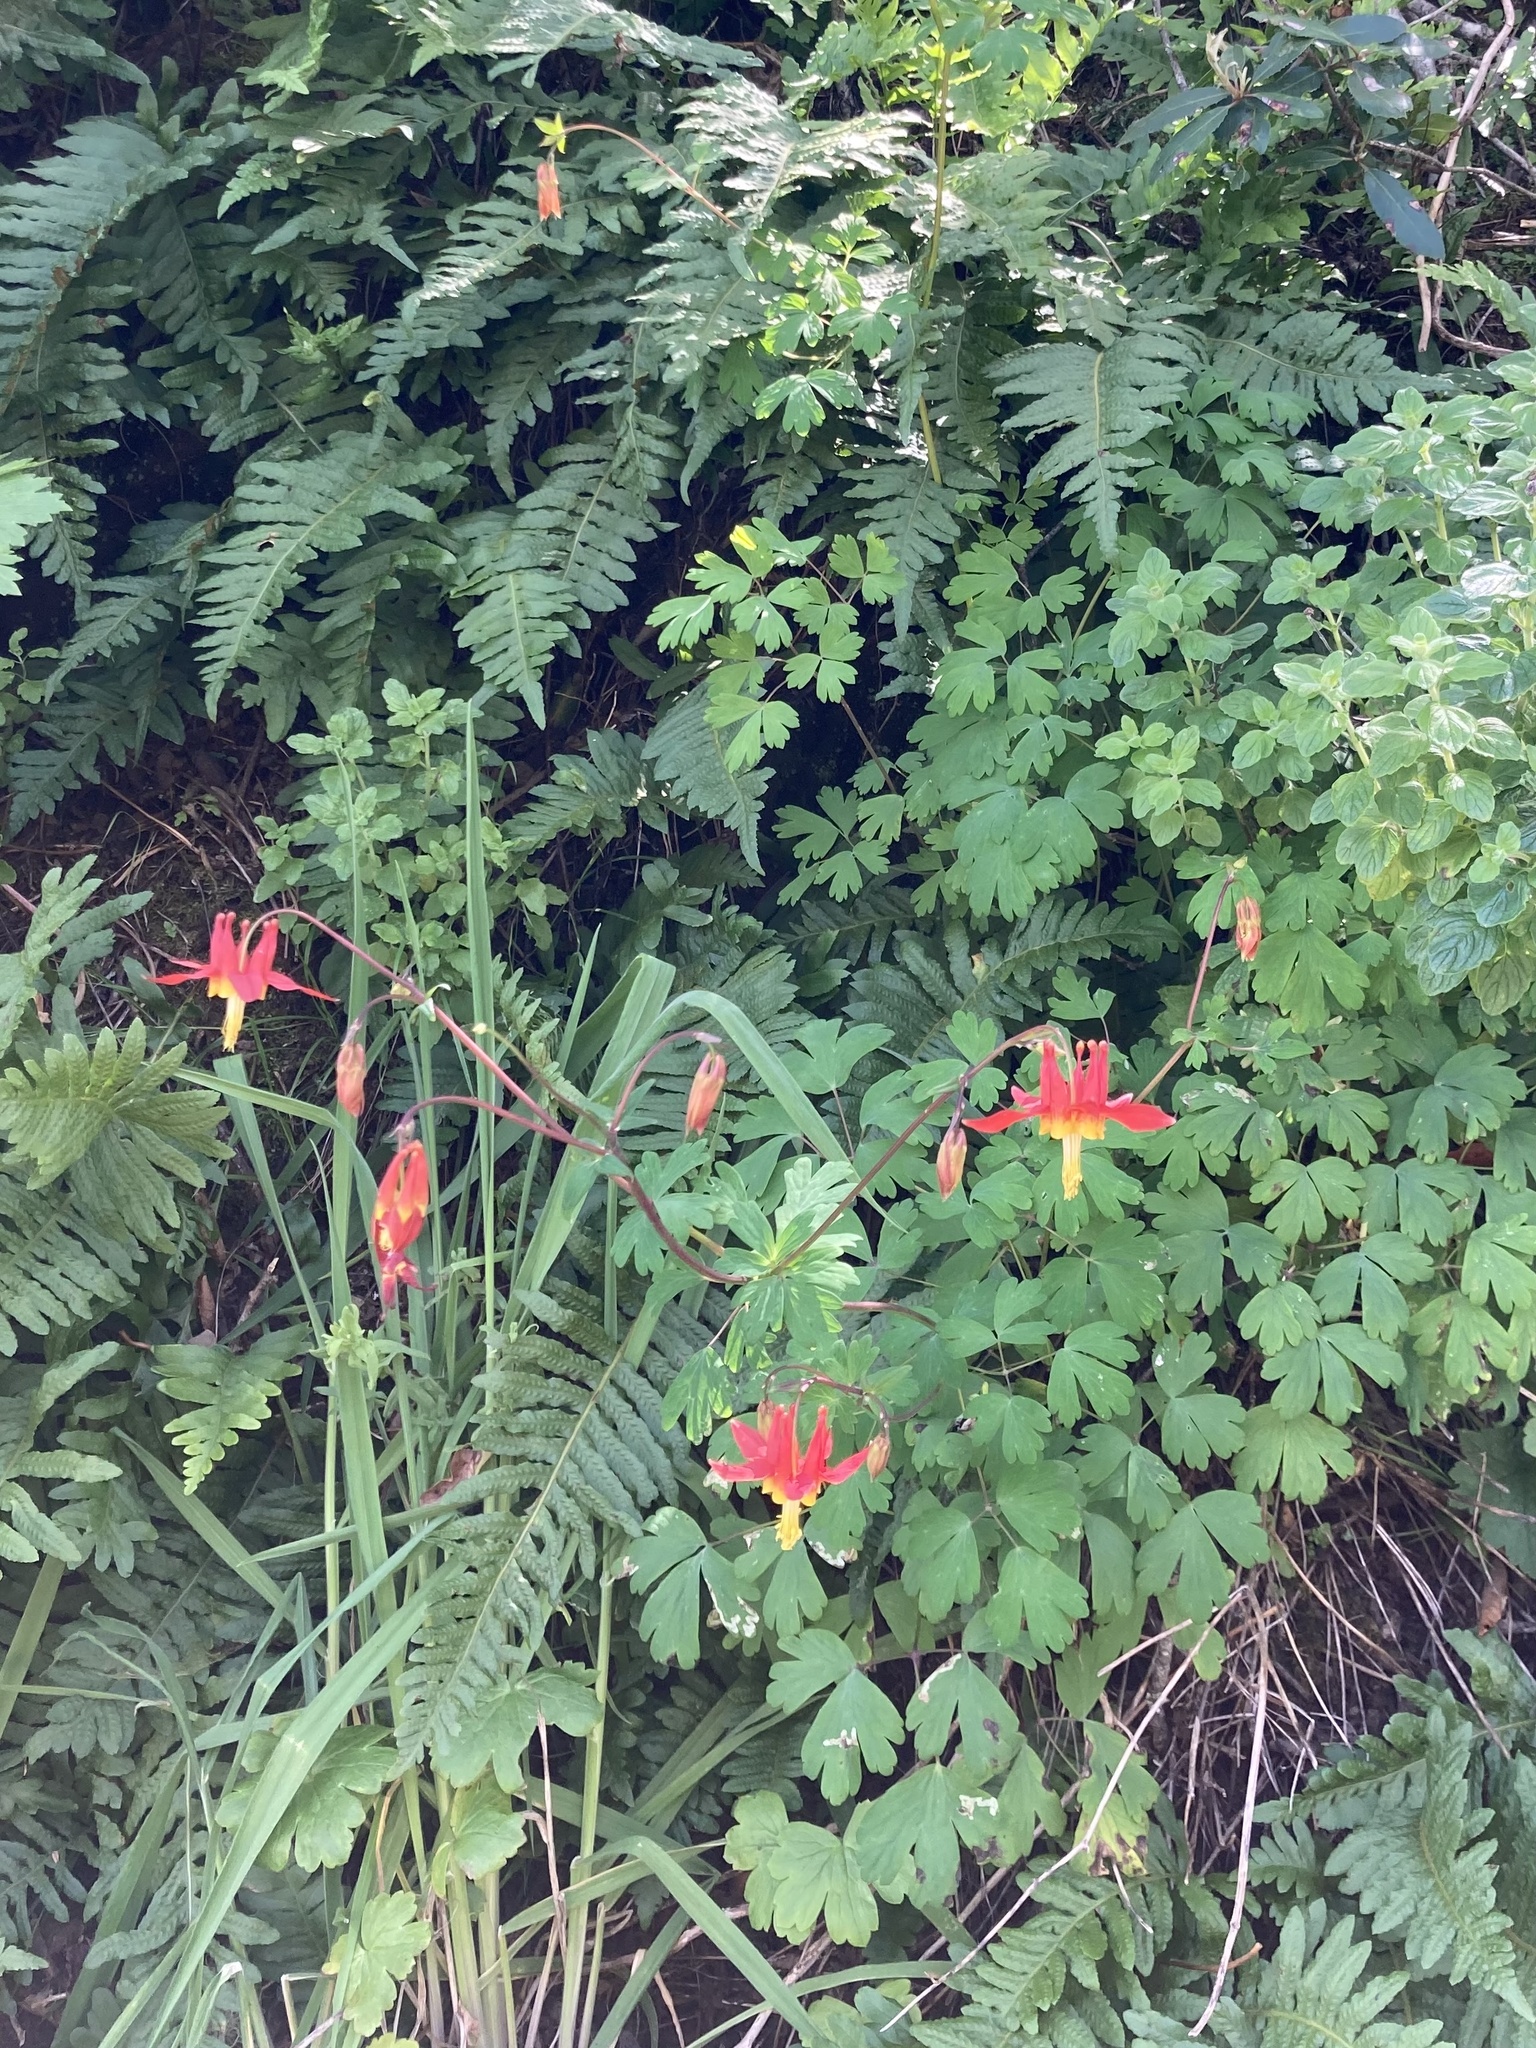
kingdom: Plantae
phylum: Tracheophyta
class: Magnoliopsida
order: Ranunculales
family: Ranunculaceae
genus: Aquilegia
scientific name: Aquilegia formosa
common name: Sitka columbine
